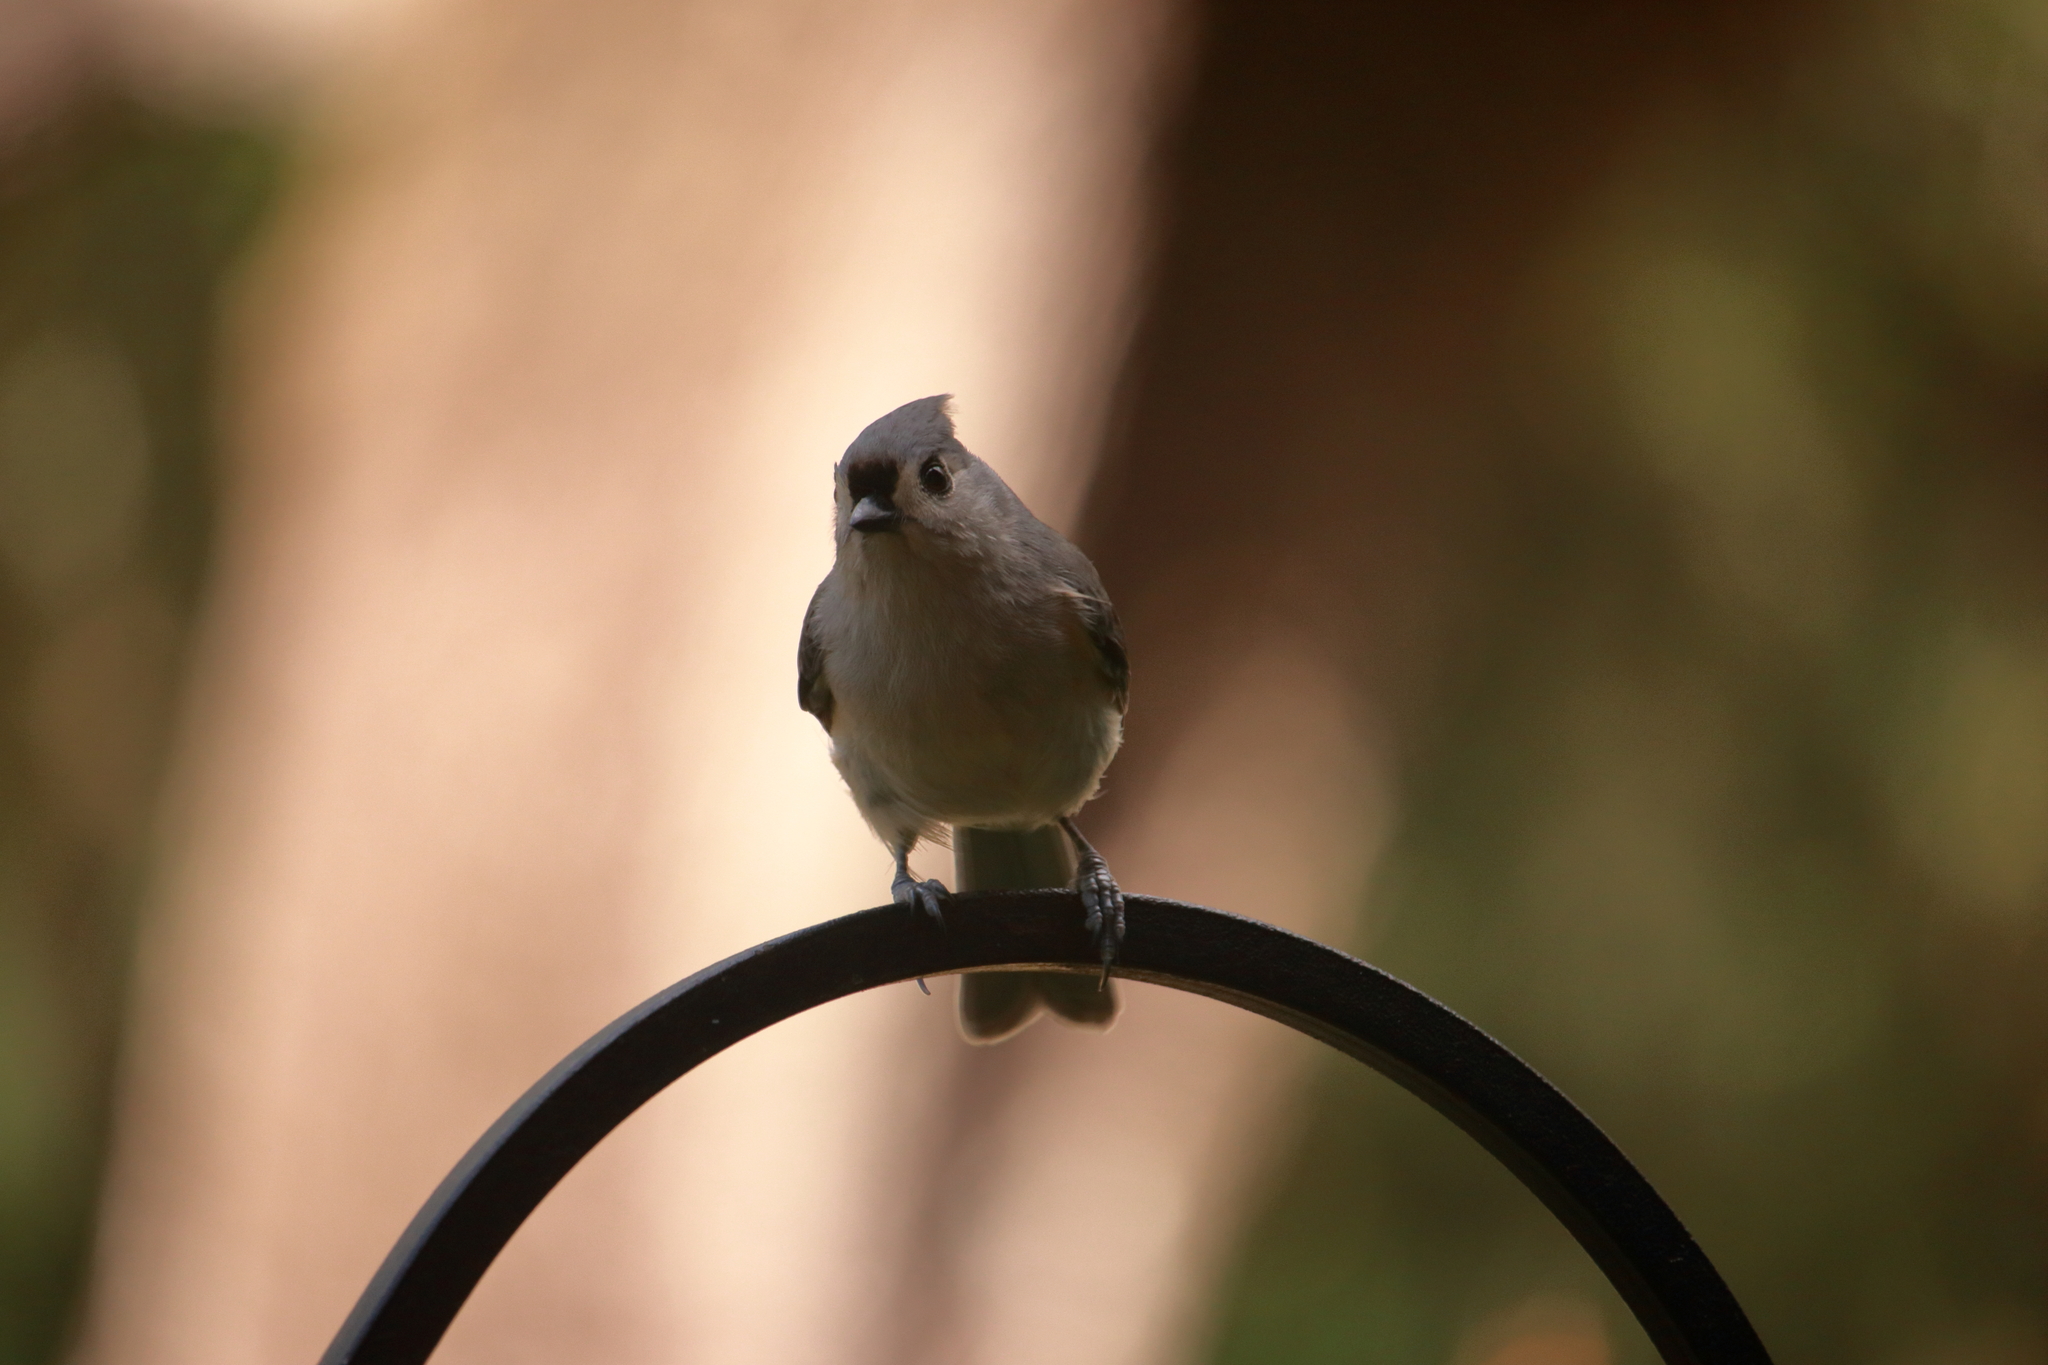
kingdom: Animalia
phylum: Chordata
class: Aves
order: Passeriformes
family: Paridae
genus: Baeolophus
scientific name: Baeolophus bicolor
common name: Tufted titmouse
